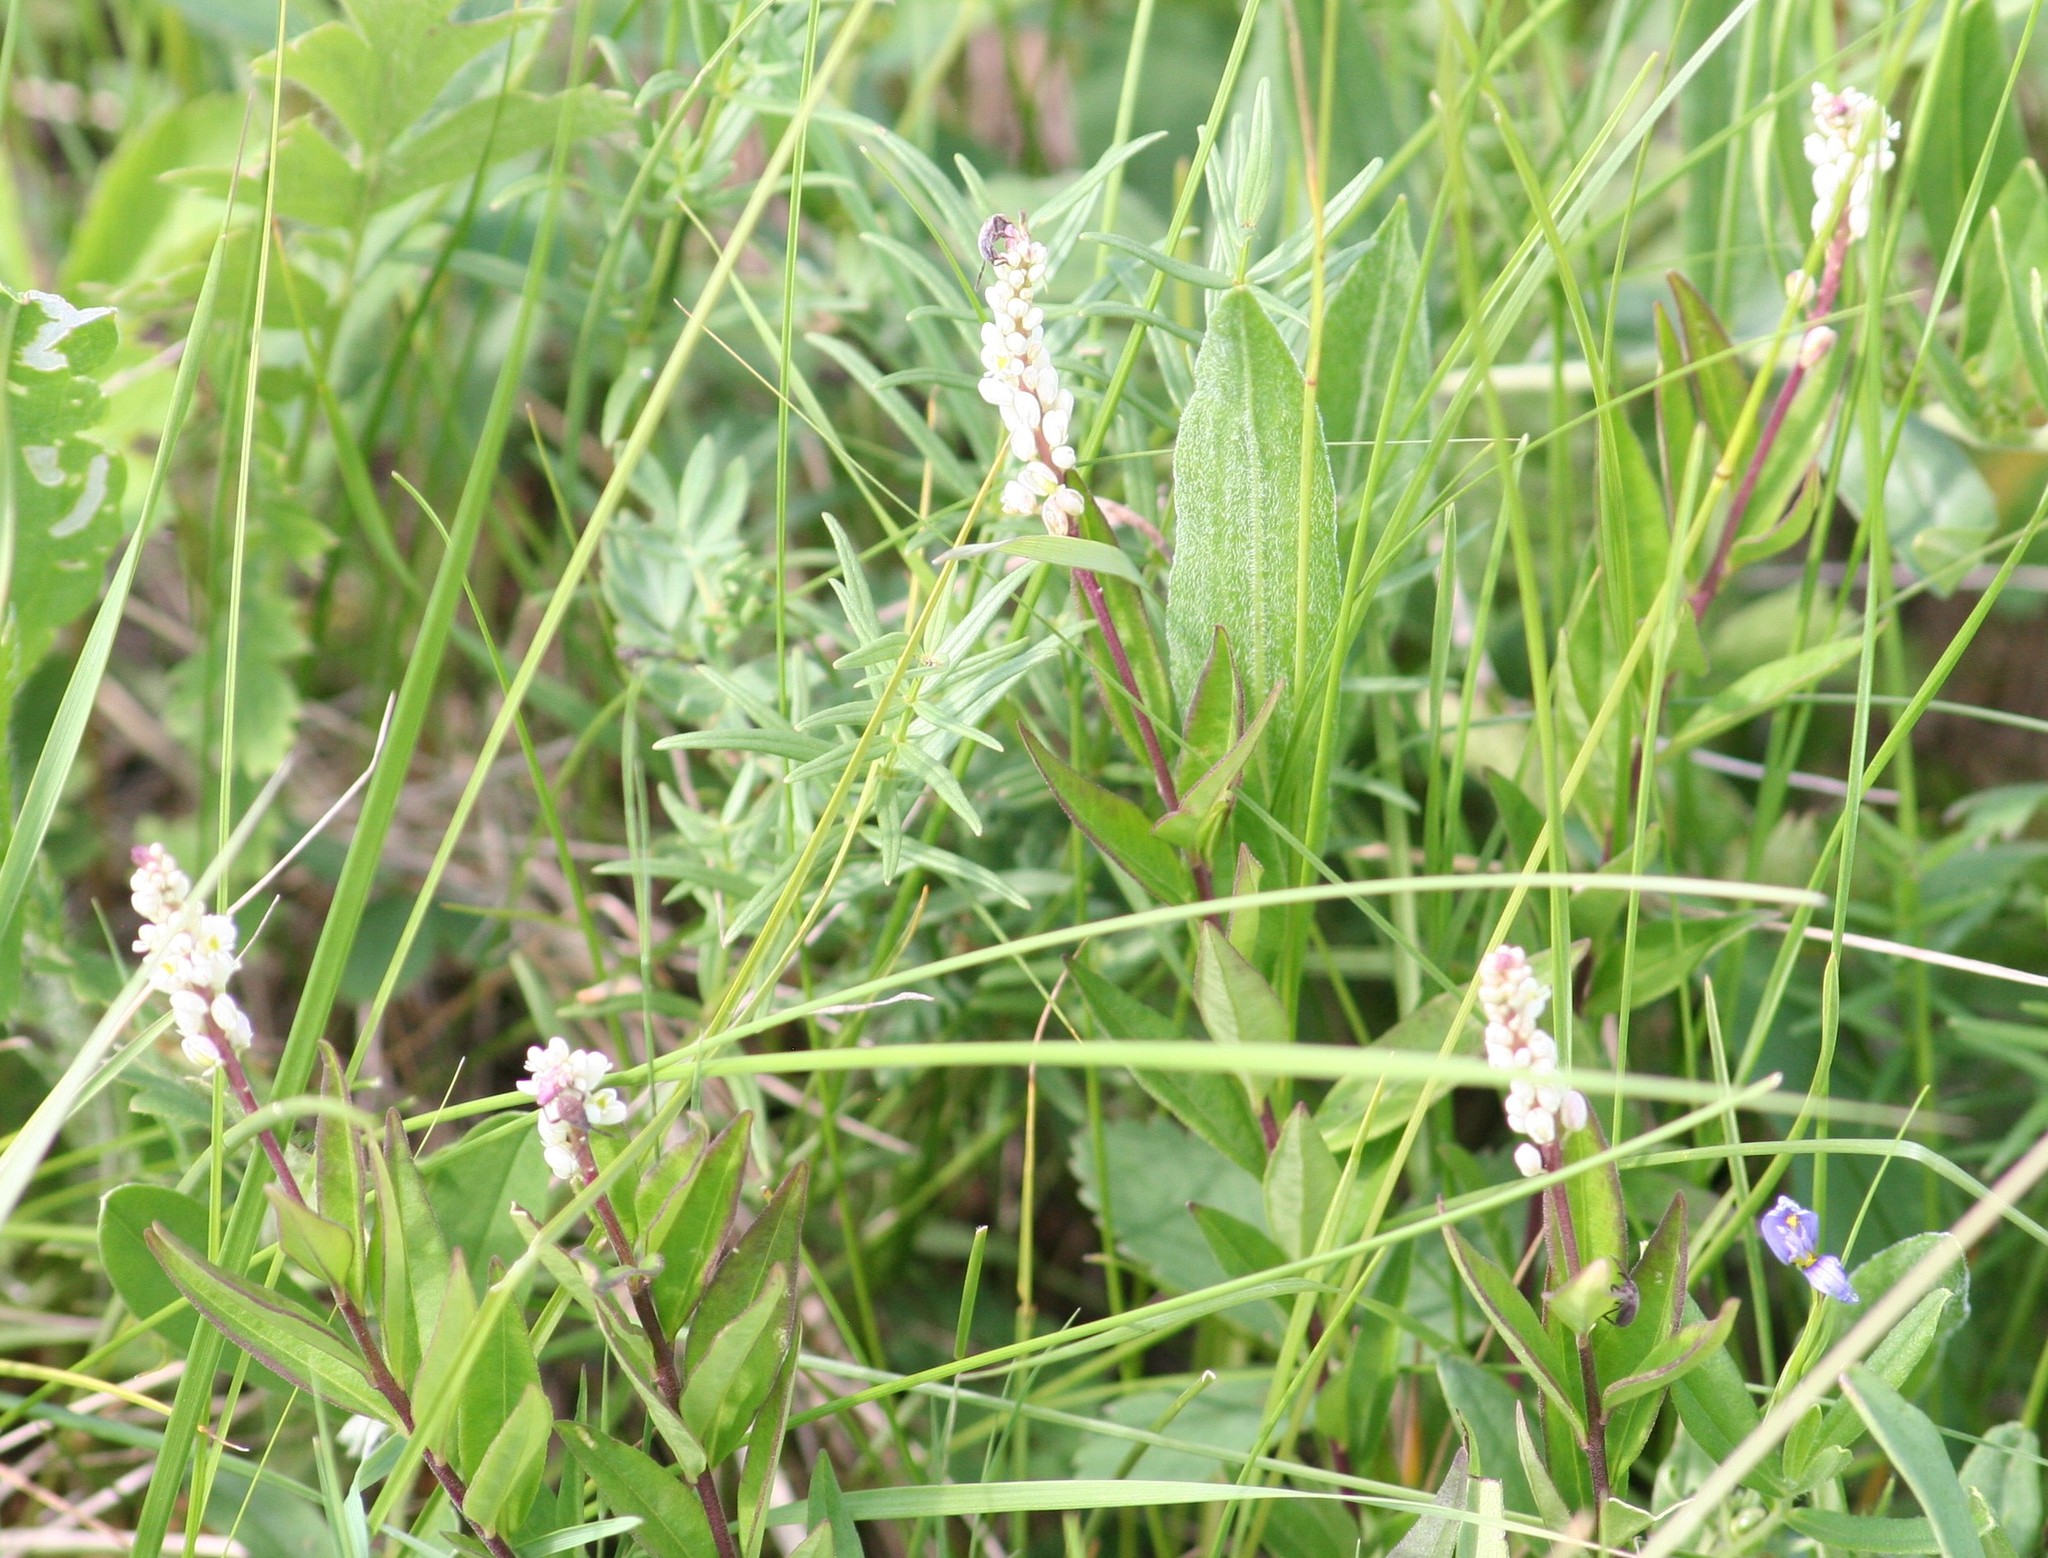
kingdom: Plantae
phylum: Tracheophyta
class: Magnoliopsida
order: Fabales
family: Polygalaceae
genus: Polygala
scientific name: Polygala senega
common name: Seneca snakeroot
